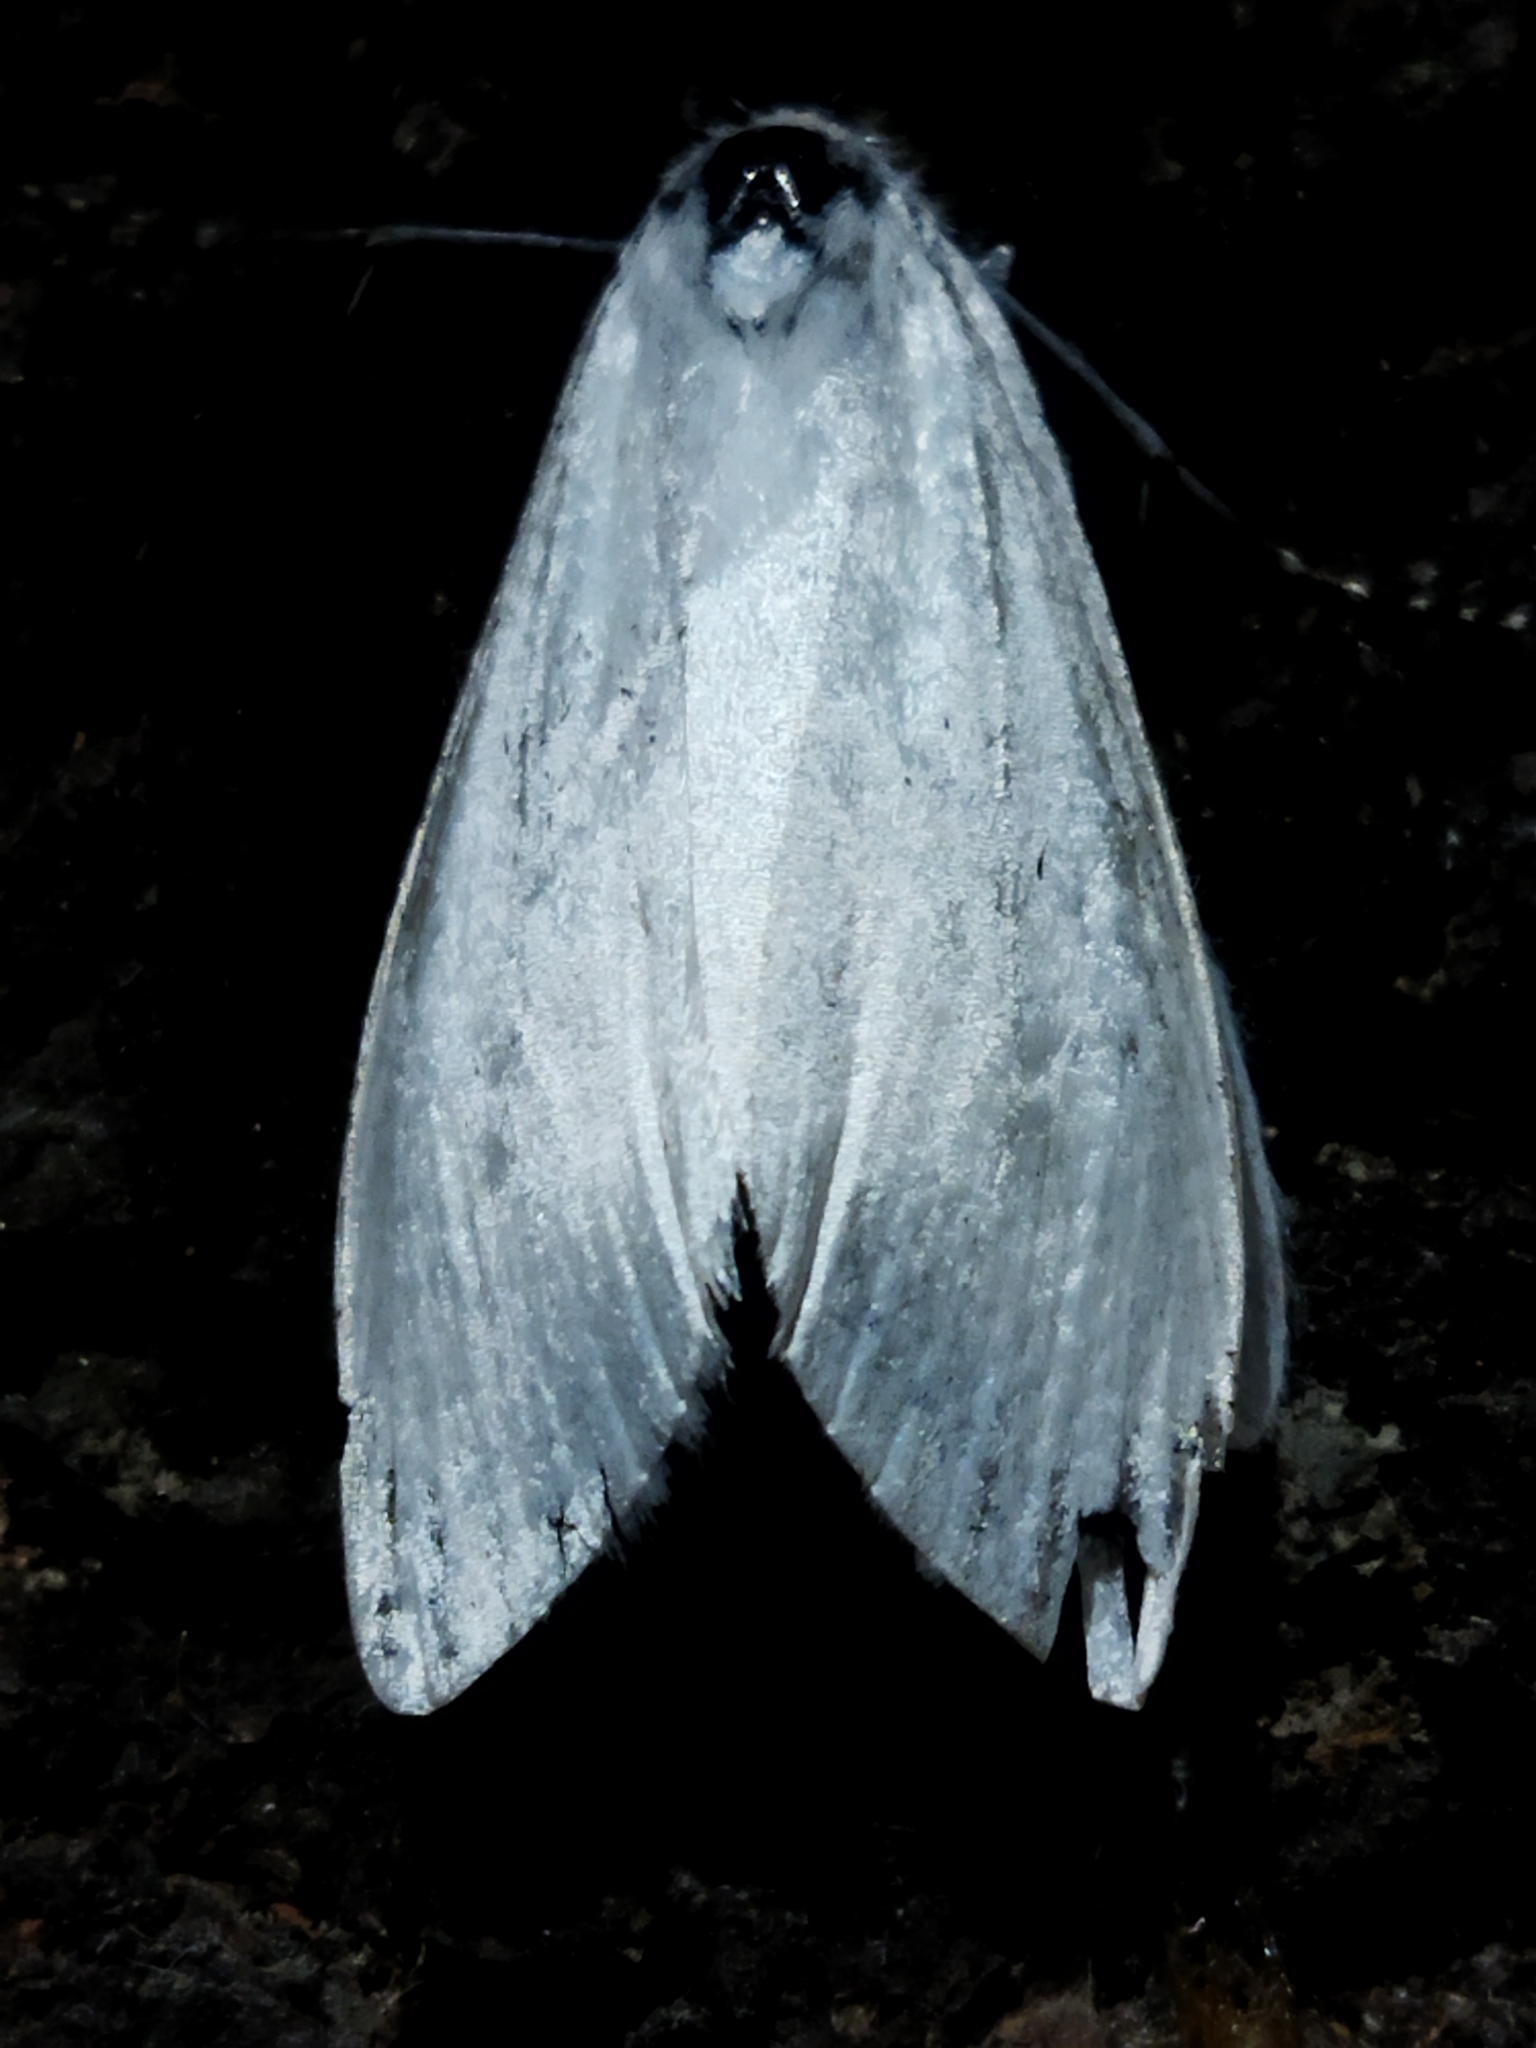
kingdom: Animalia
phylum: Arthropoda
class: Insecta
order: Lepidoptera
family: Crambidae
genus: Scirpophaga
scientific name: Scirpophaga praelata
